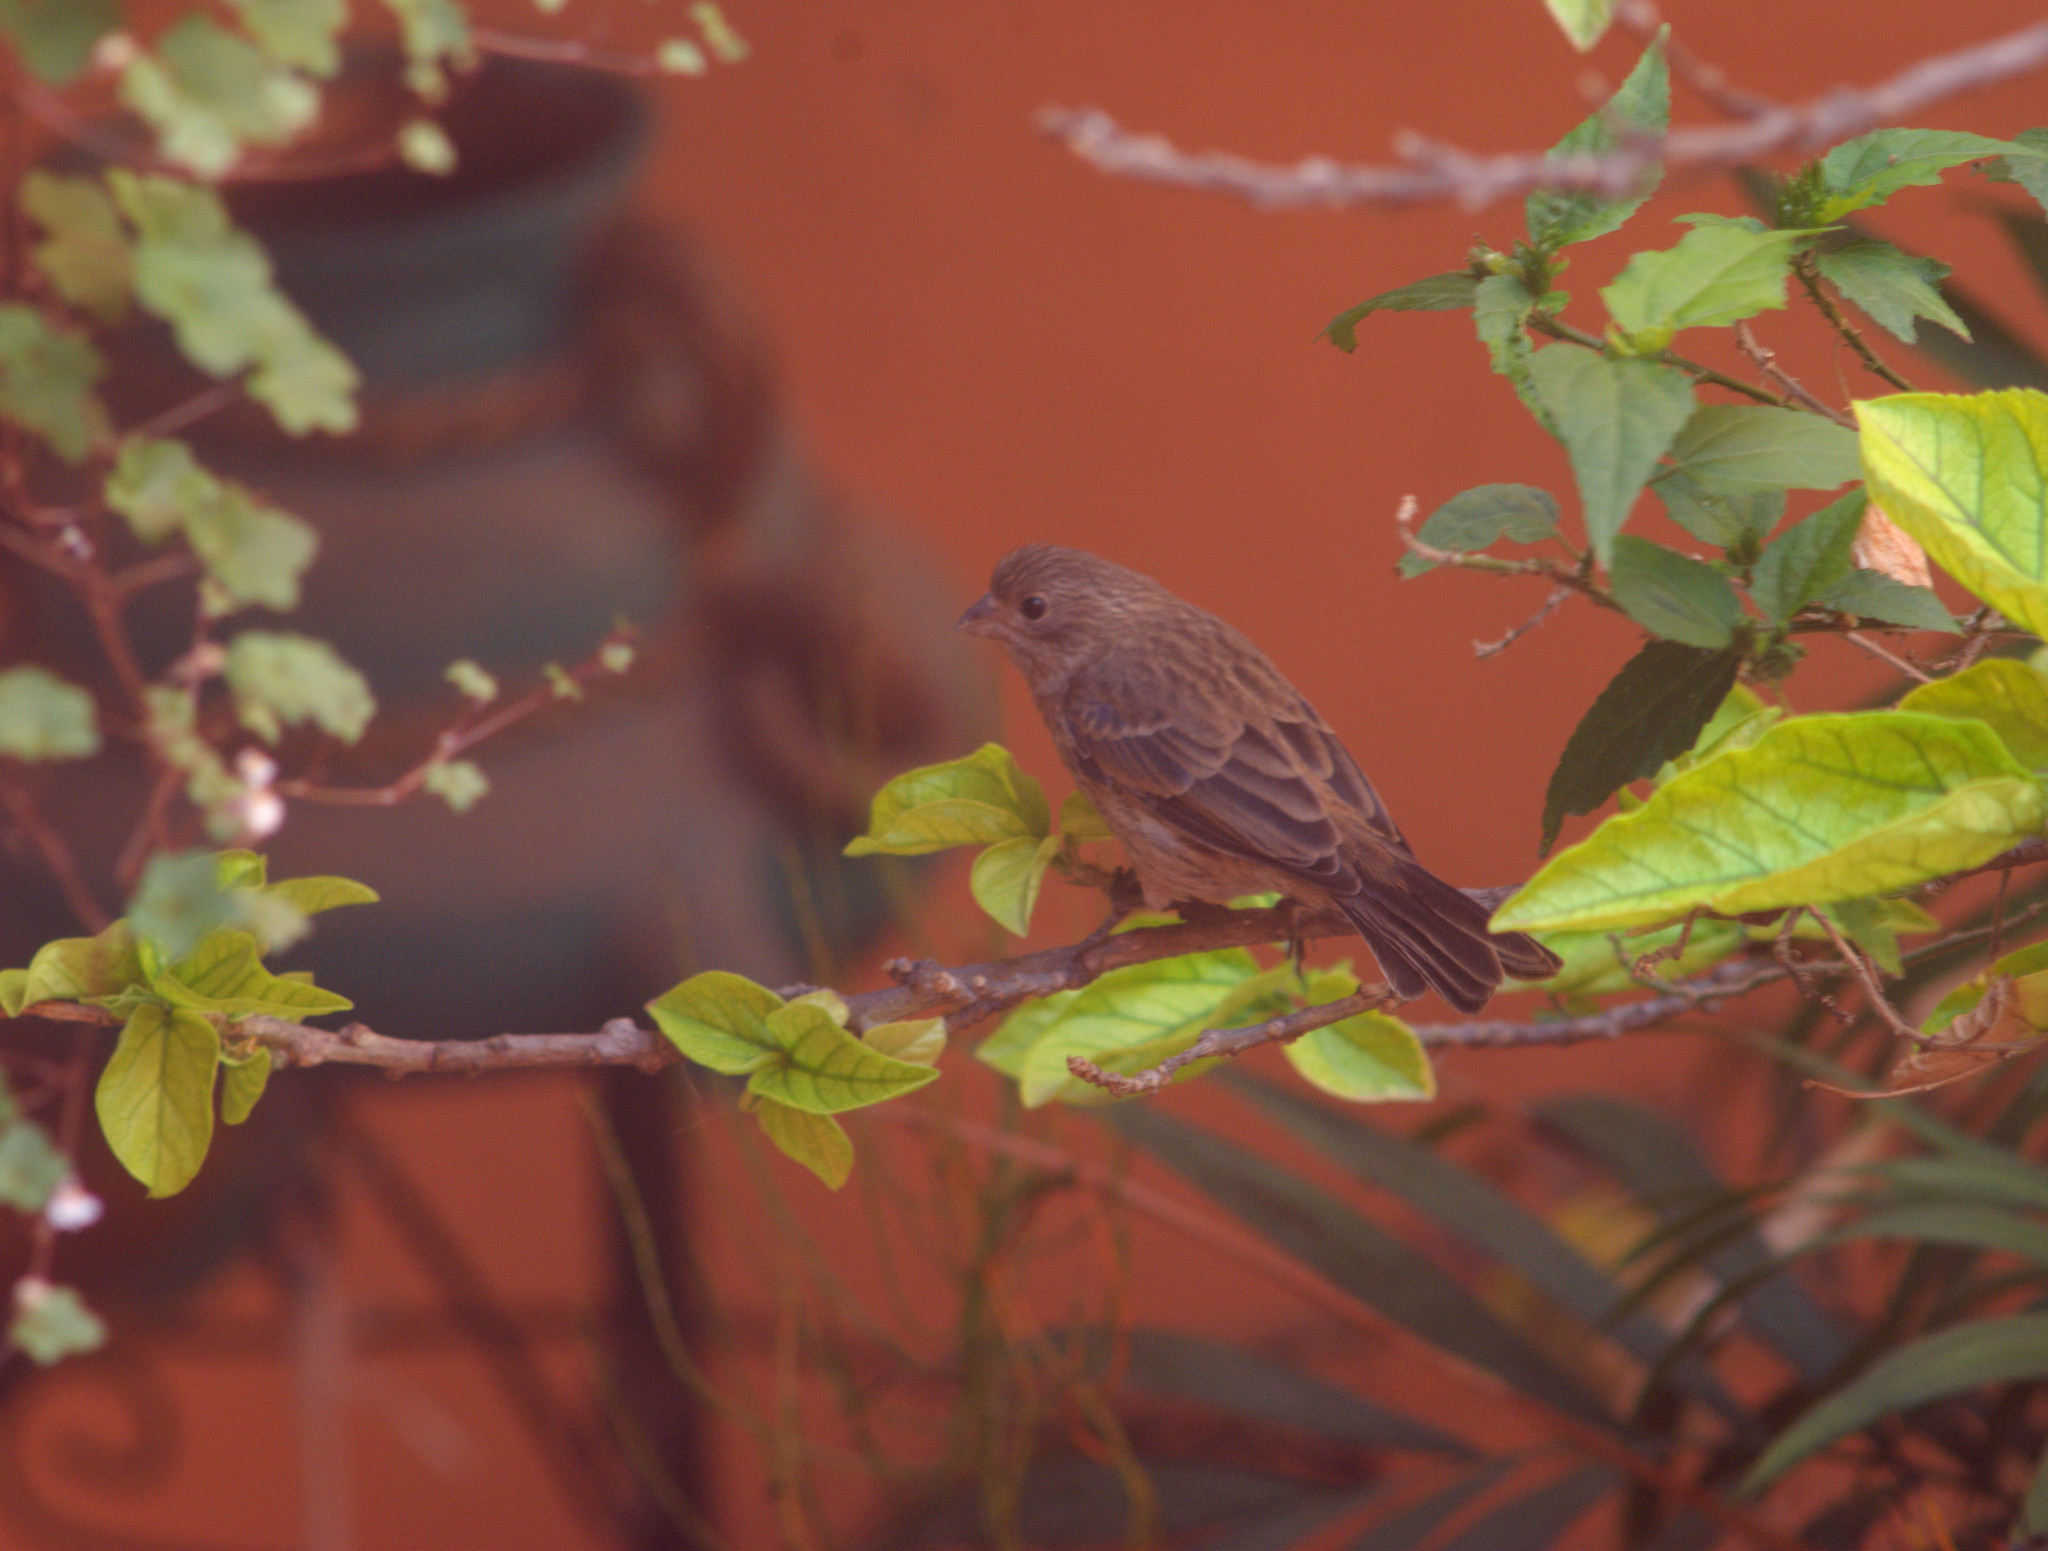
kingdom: Animalia
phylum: Chordata
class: Aves
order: Passeriformes
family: Fringillidae
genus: Haemorhous
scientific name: Haemorhous mexicanus
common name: House finch
